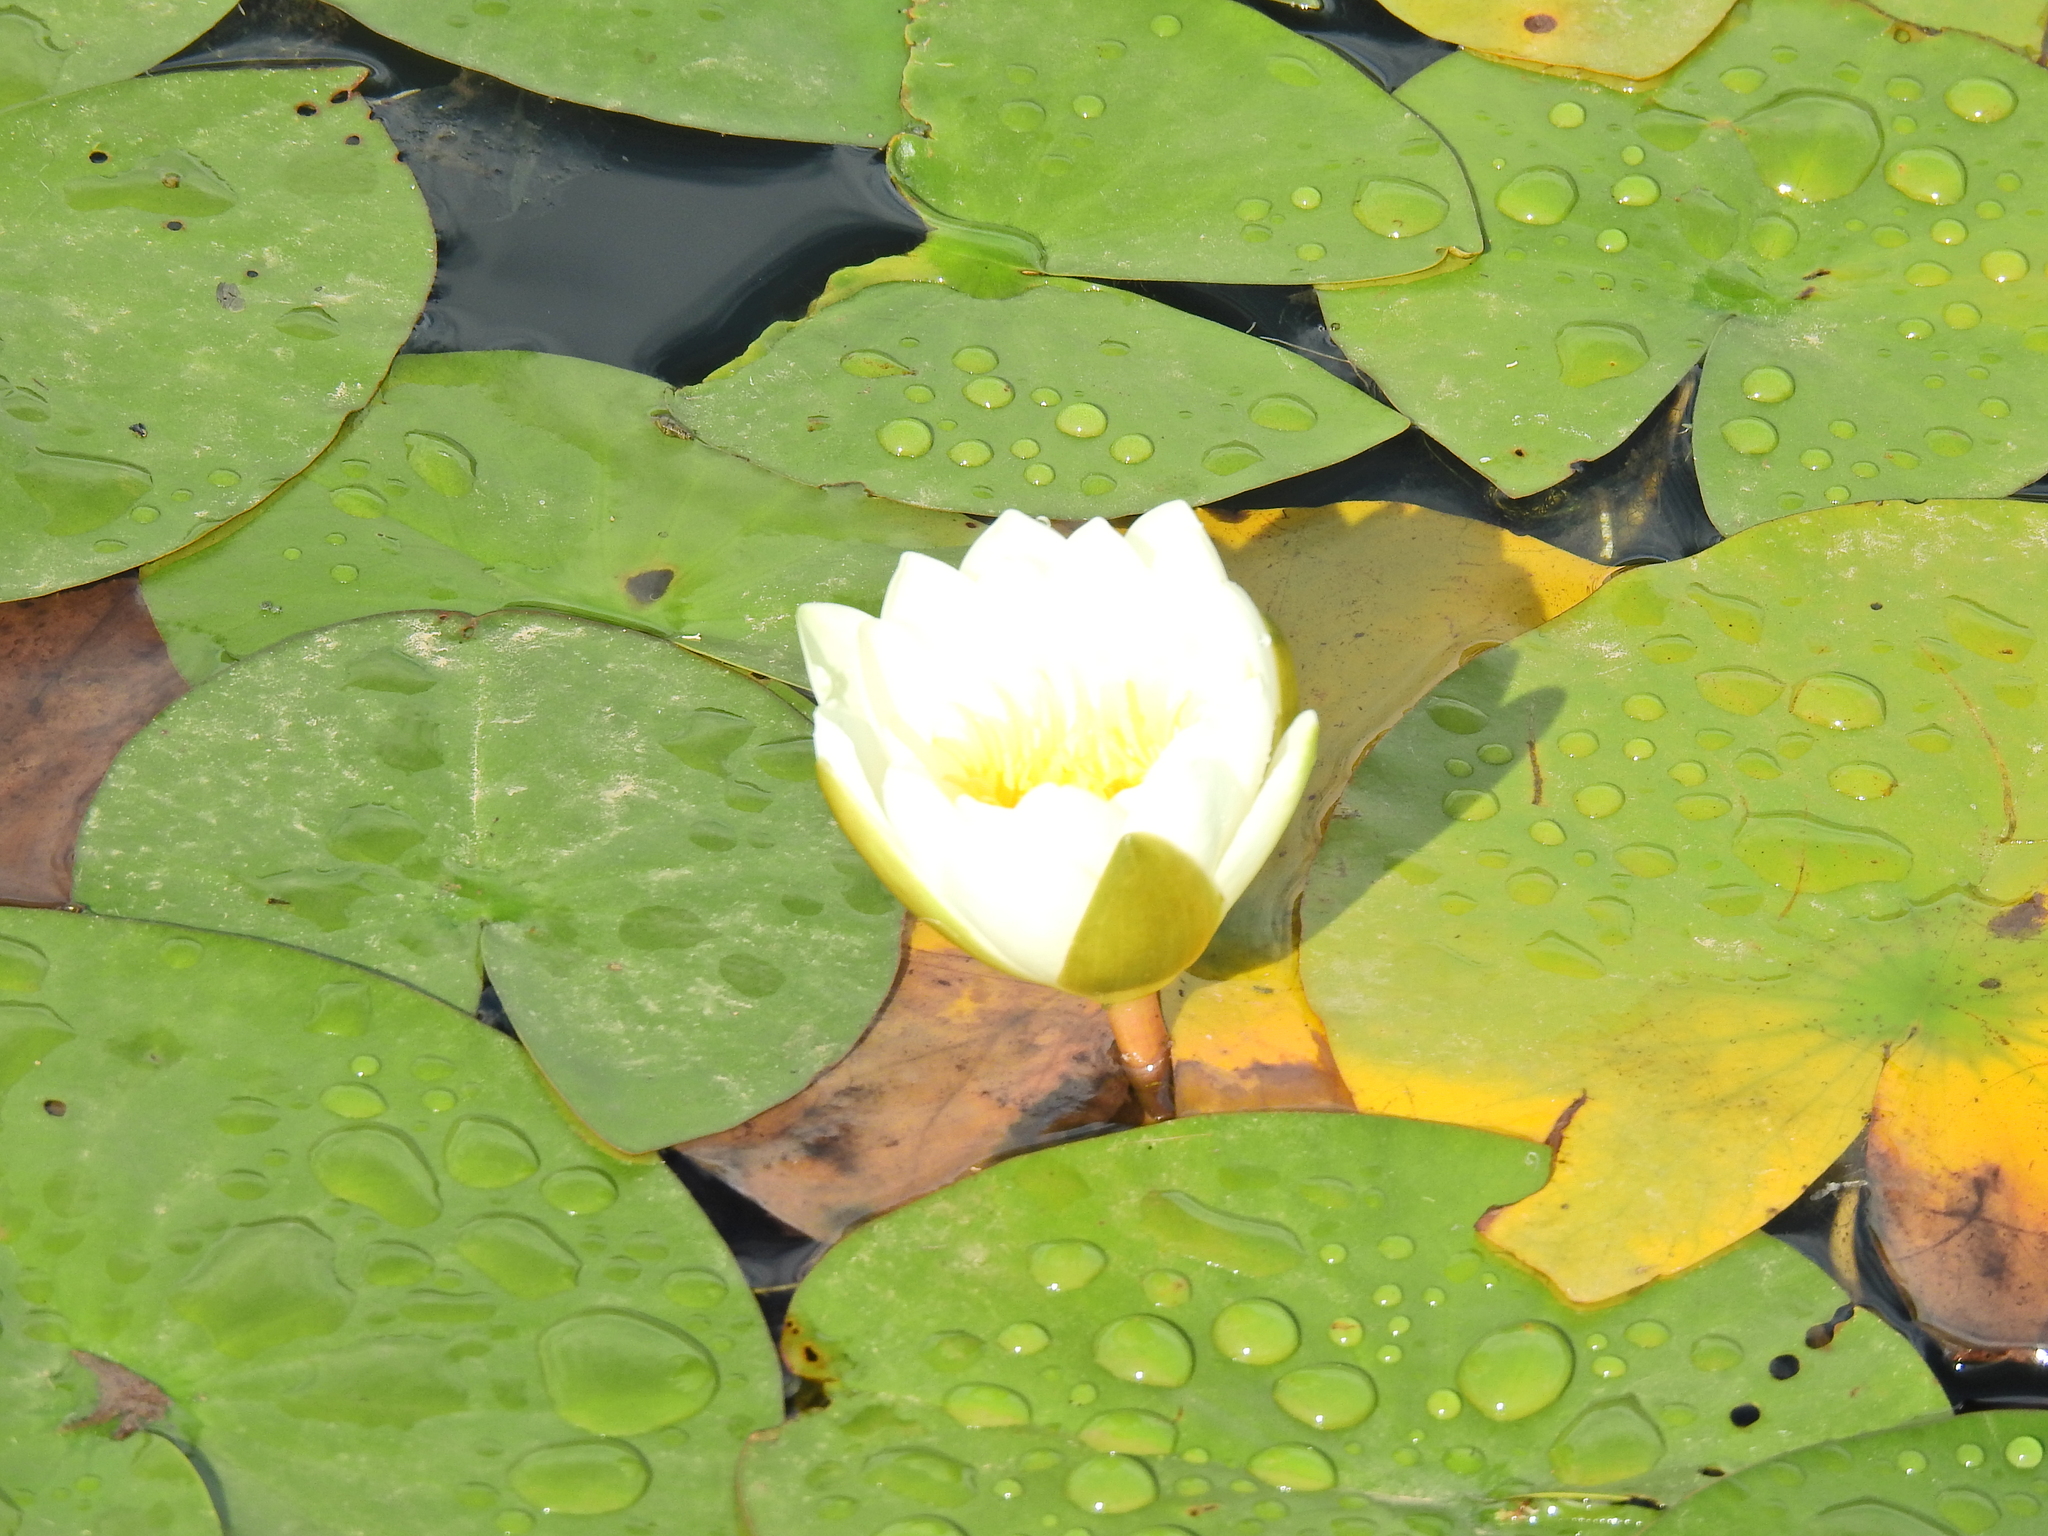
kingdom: Plantae
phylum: Tracheophyta
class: Magnoliopsida
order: Nymphaeales
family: Nymphaeaceae
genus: Nymphaea
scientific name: Nymphaea alba
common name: White water-lily
